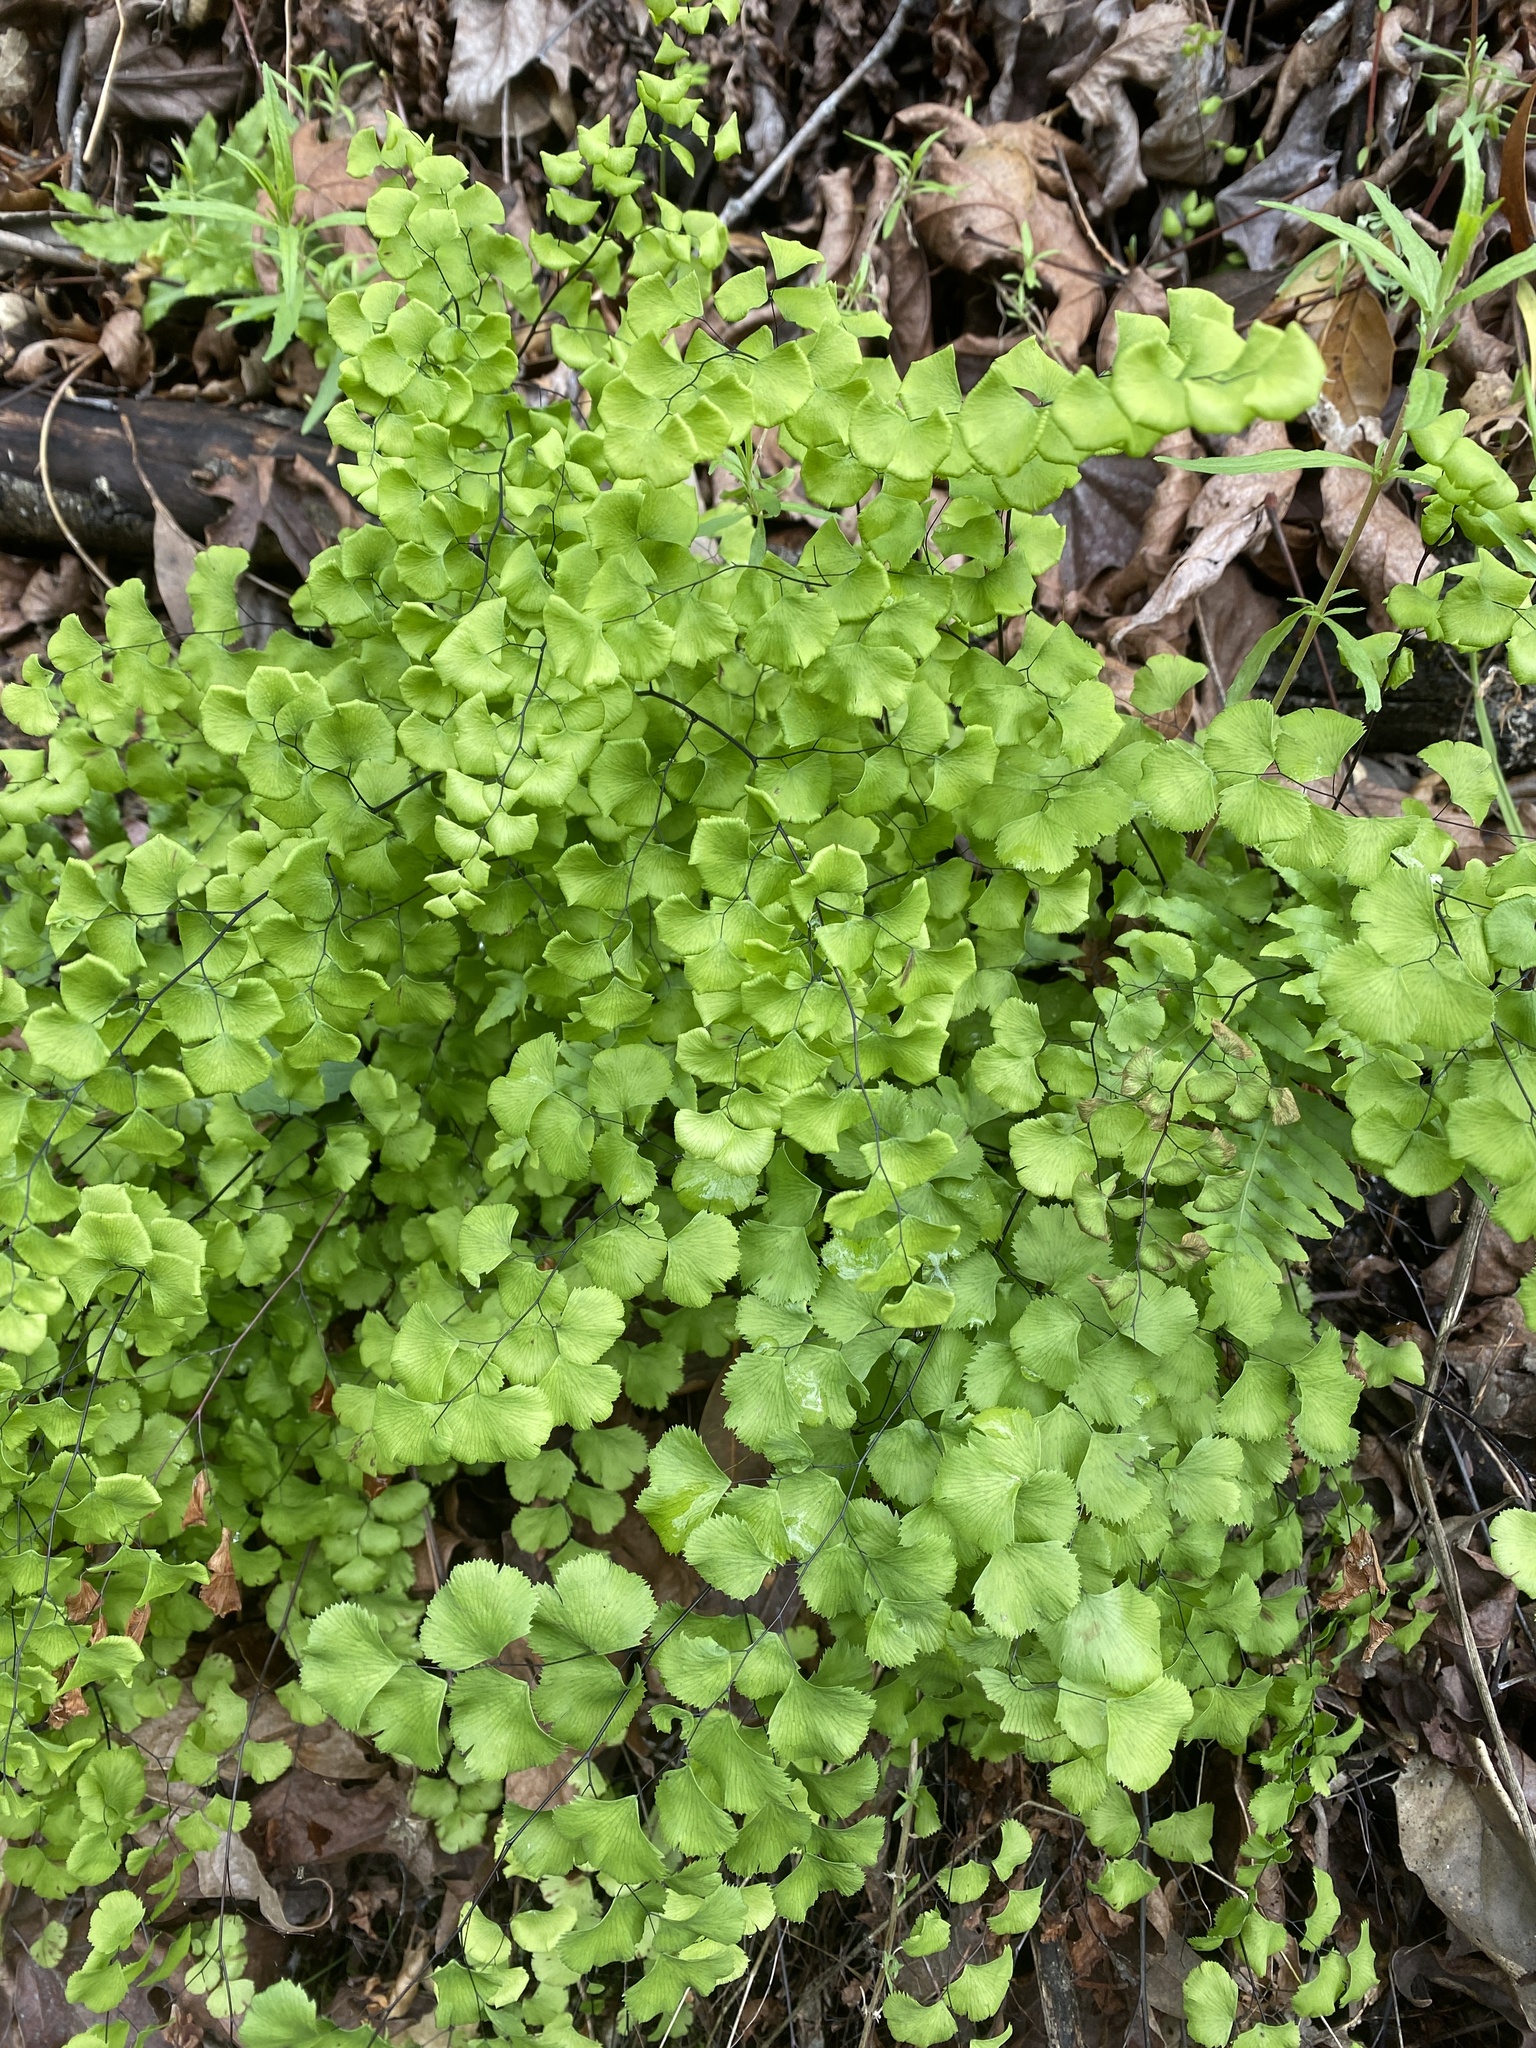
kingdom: Plantae
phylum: Tracheophyta
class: Polypodiopsida
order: Polypodiales
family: Pteridaceae
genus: Adiantum
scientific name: Adiantum jordanii
